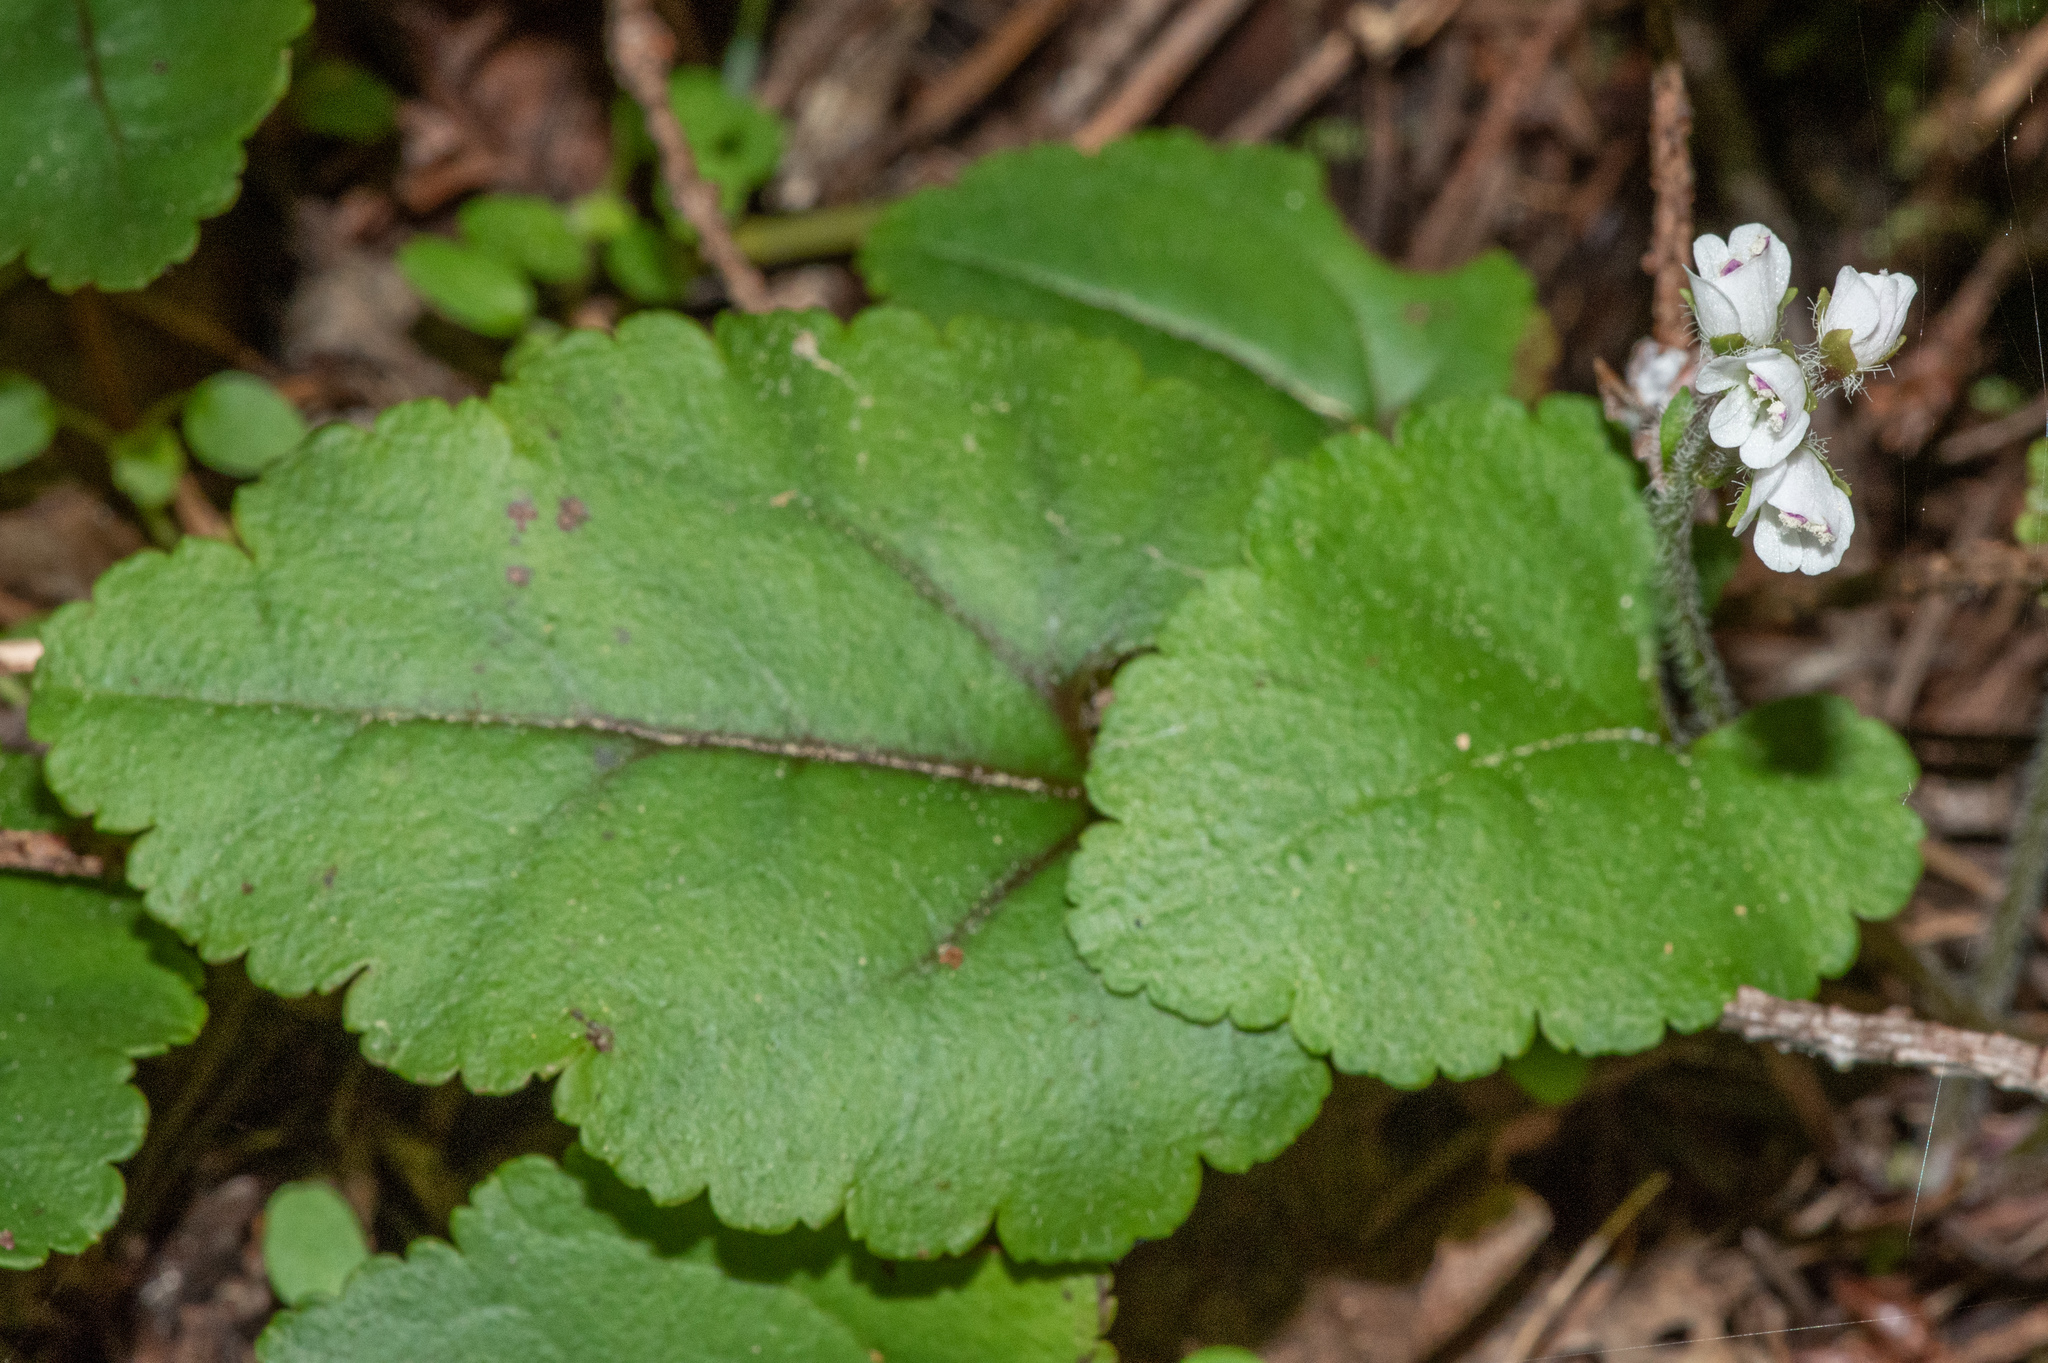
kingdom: Plantae
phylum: Tracheophyta
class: Magnoliopsida
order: Lamiales
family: Plantaginaceae
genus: Synthyris
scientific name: Synthyris cordata
